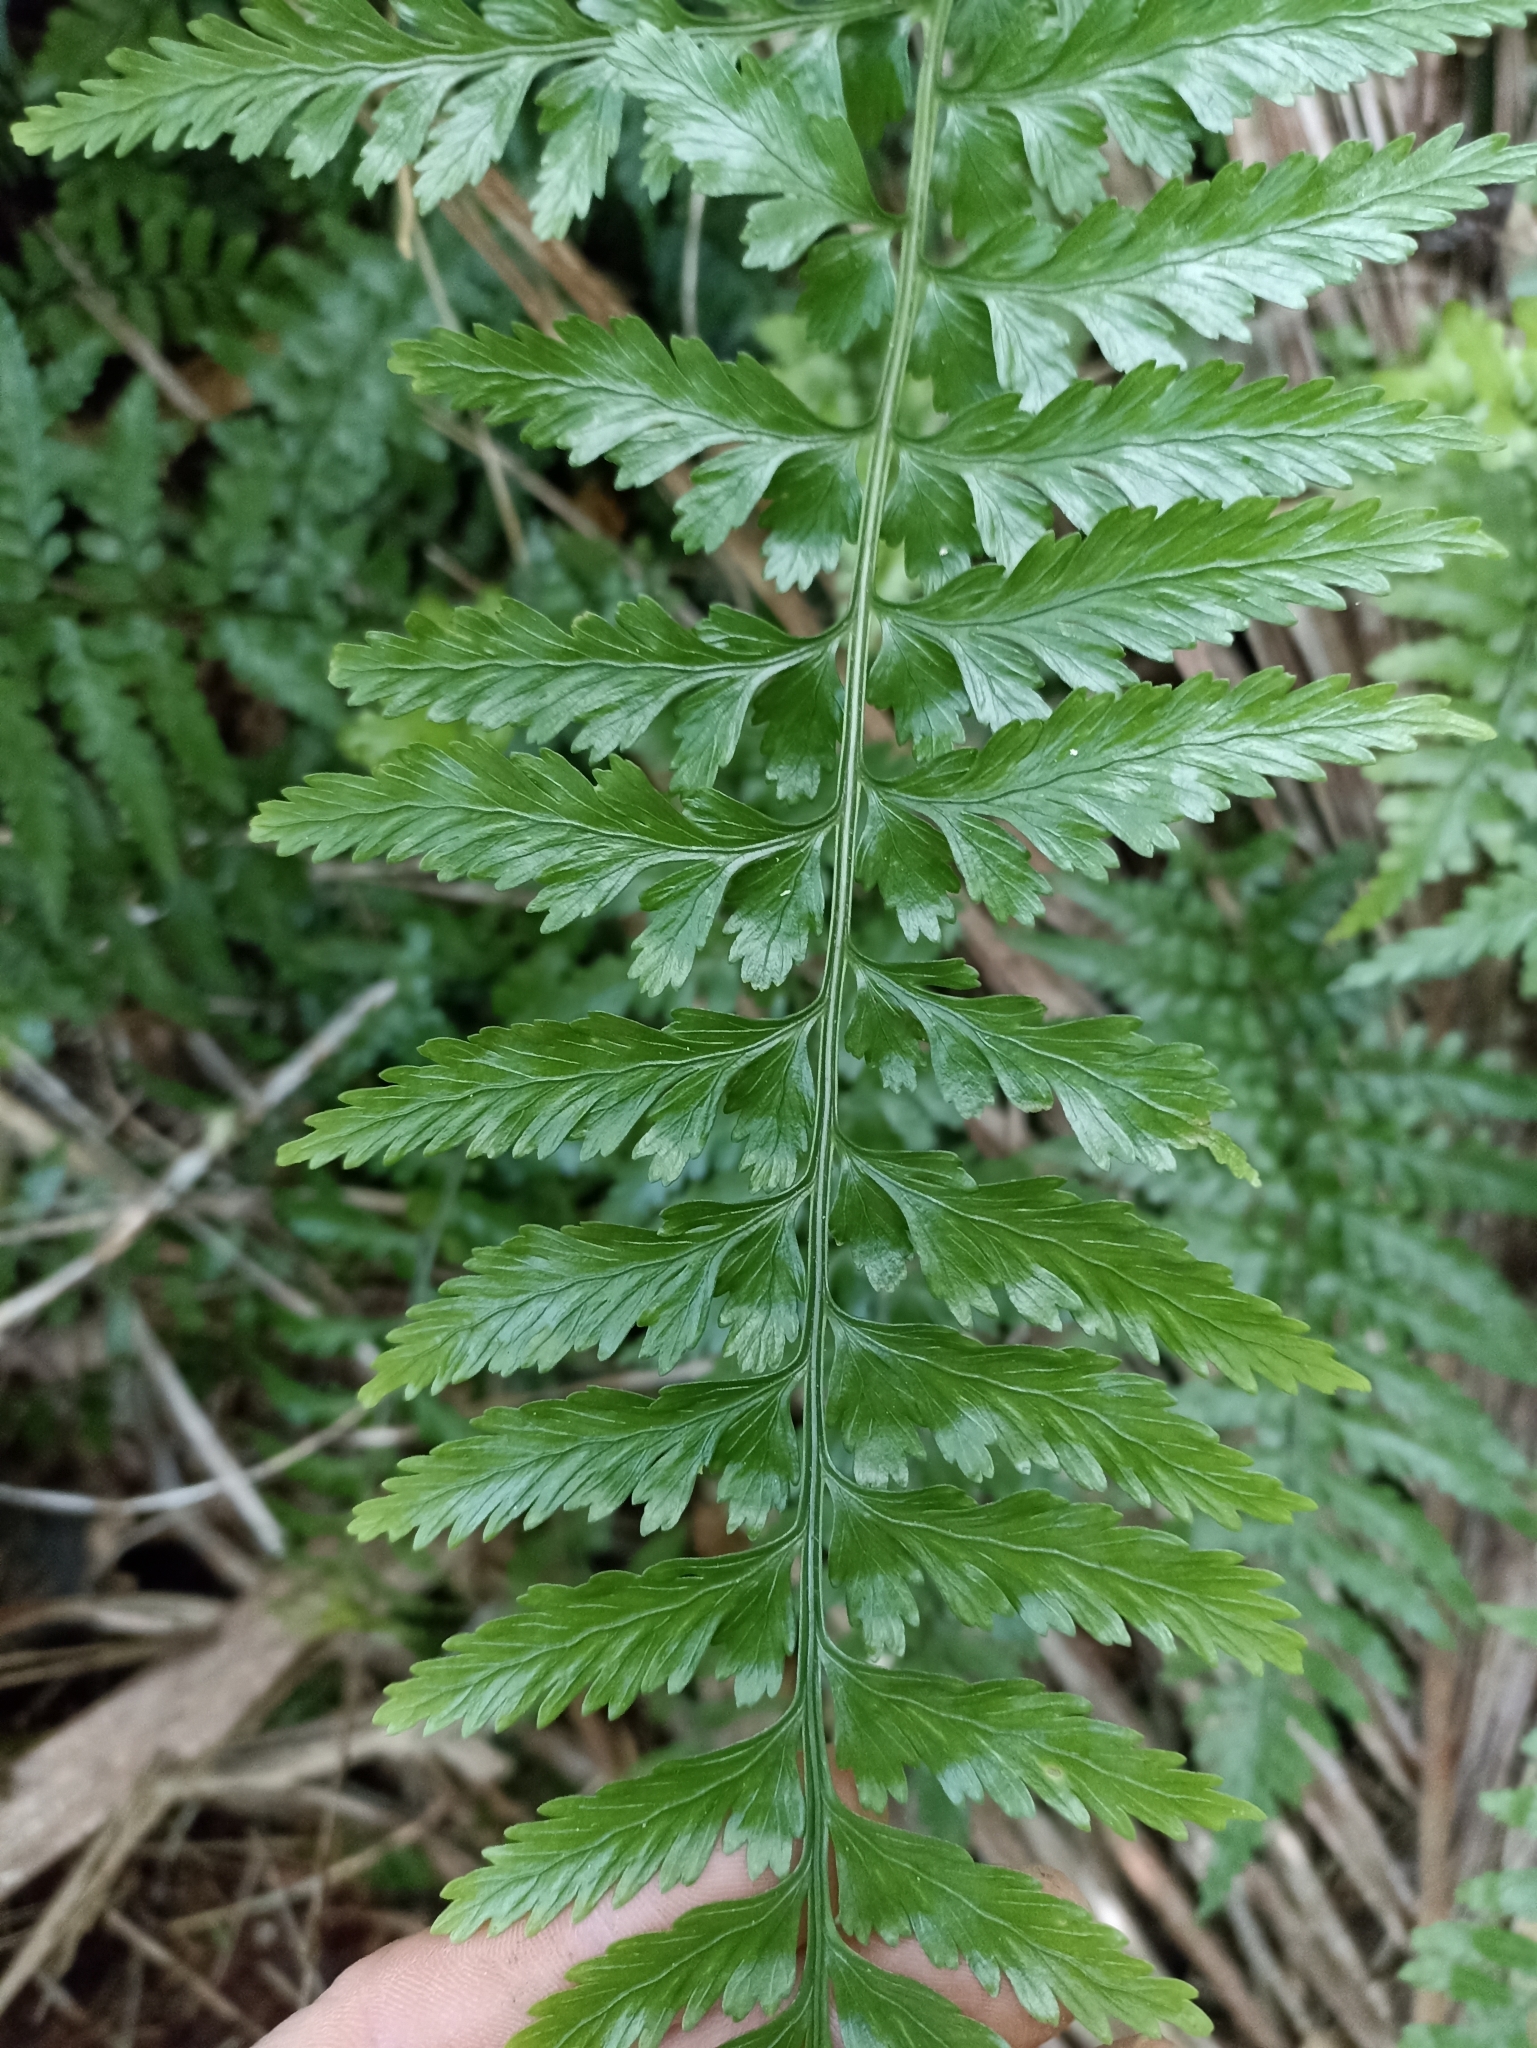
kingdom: Plantae
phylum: Tracheophyta
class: Polypodiopsida
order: Polypodiales
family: Aspleniaceae
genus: Asplenium
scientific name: Asplenium lamprophyllum
